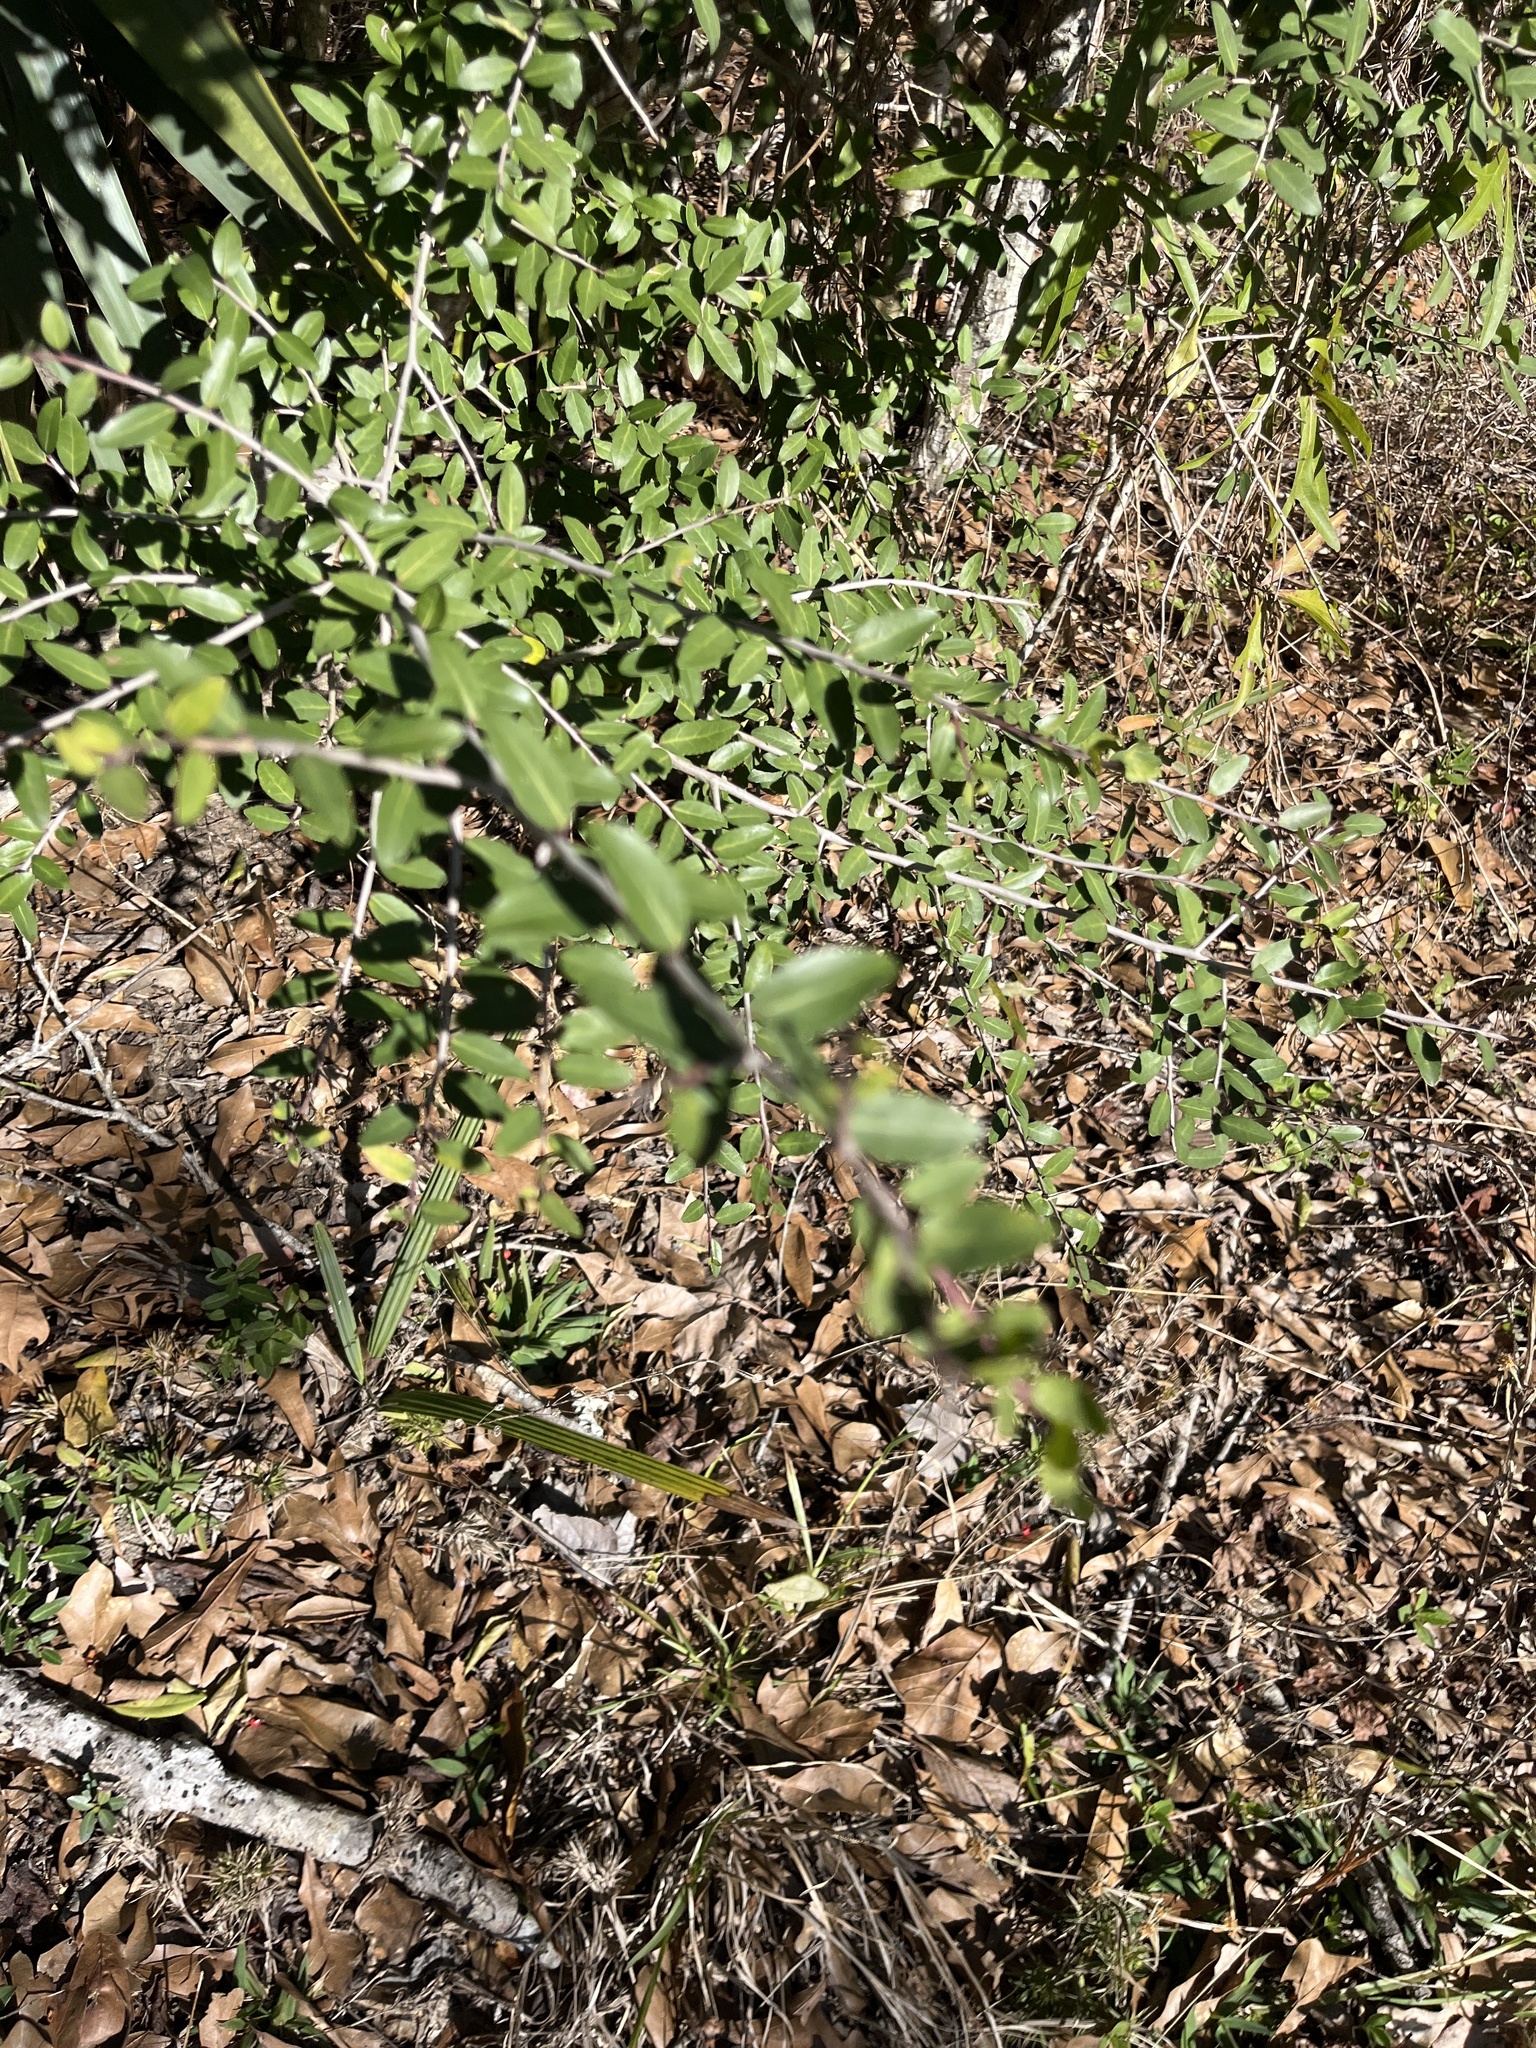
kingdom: Plantae
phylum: Tracheophyta
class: Magnoliopsida
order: Aquifoliales
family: Aquifoliaceae
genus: Ilex
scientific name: Ilex vomitoria
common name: Yaupon holly
